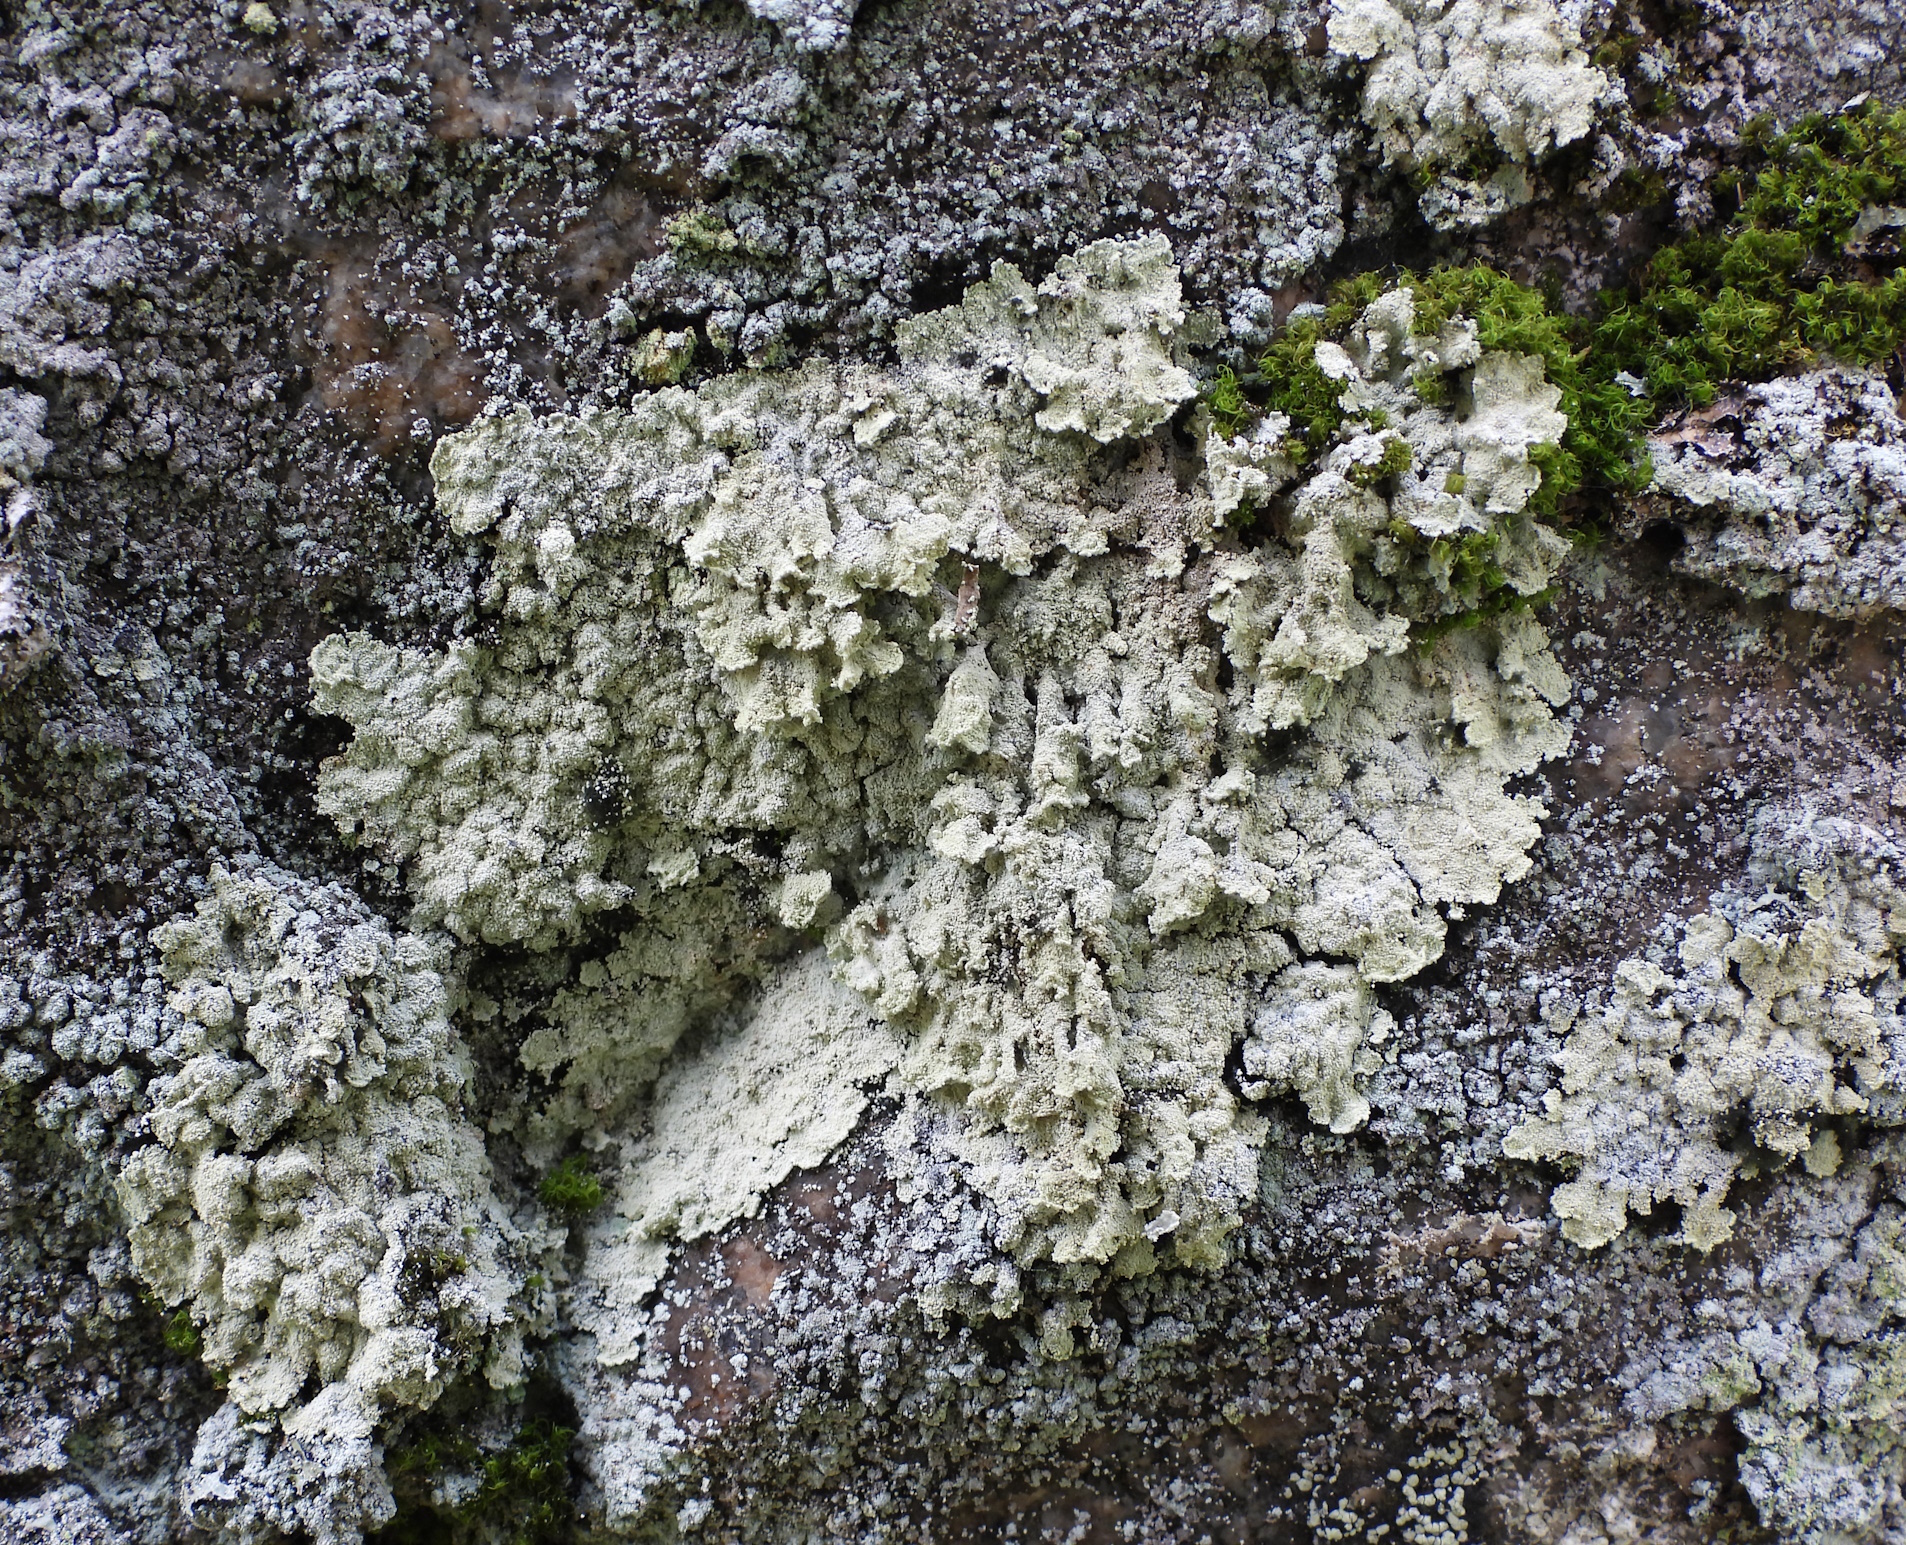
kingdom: Fungi
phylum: Ascomycota
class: Lecanoromycetes
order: Lecanorales
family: Stereocaulaceae
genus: Lepraria
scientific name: Lepraria membranacea
